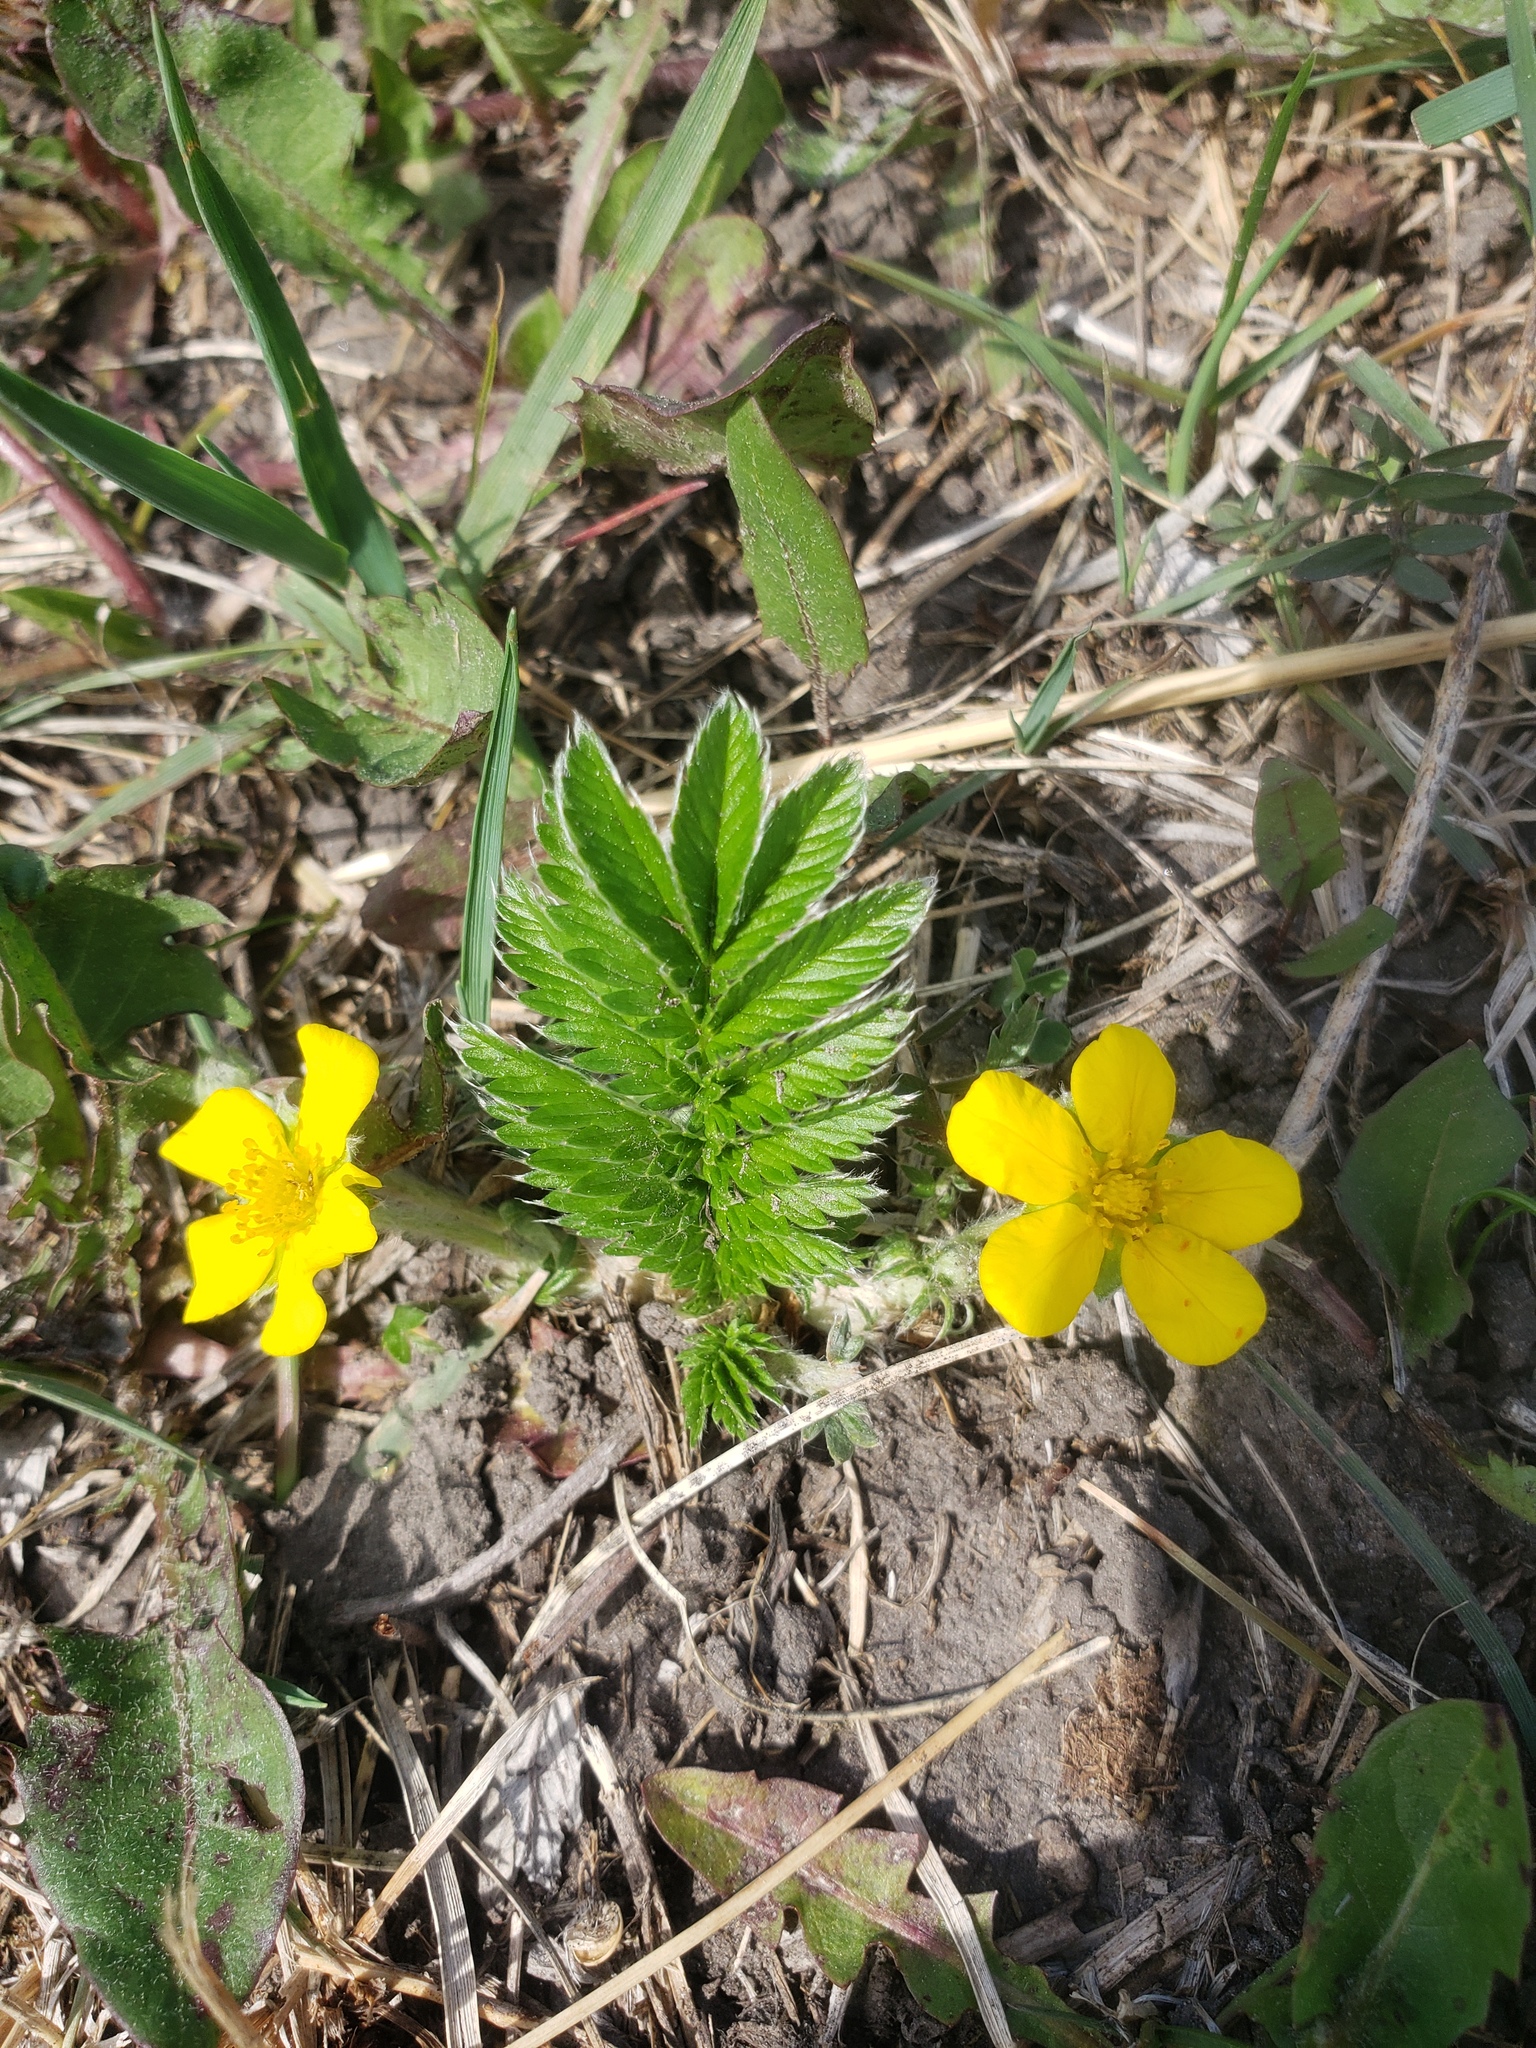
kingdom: Plantae
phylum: Tracheophyta
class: Magnoliopsida
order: Rosales
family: Rosaceae
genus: Argentina
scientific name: Argentina anserina
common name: Common silverweed
